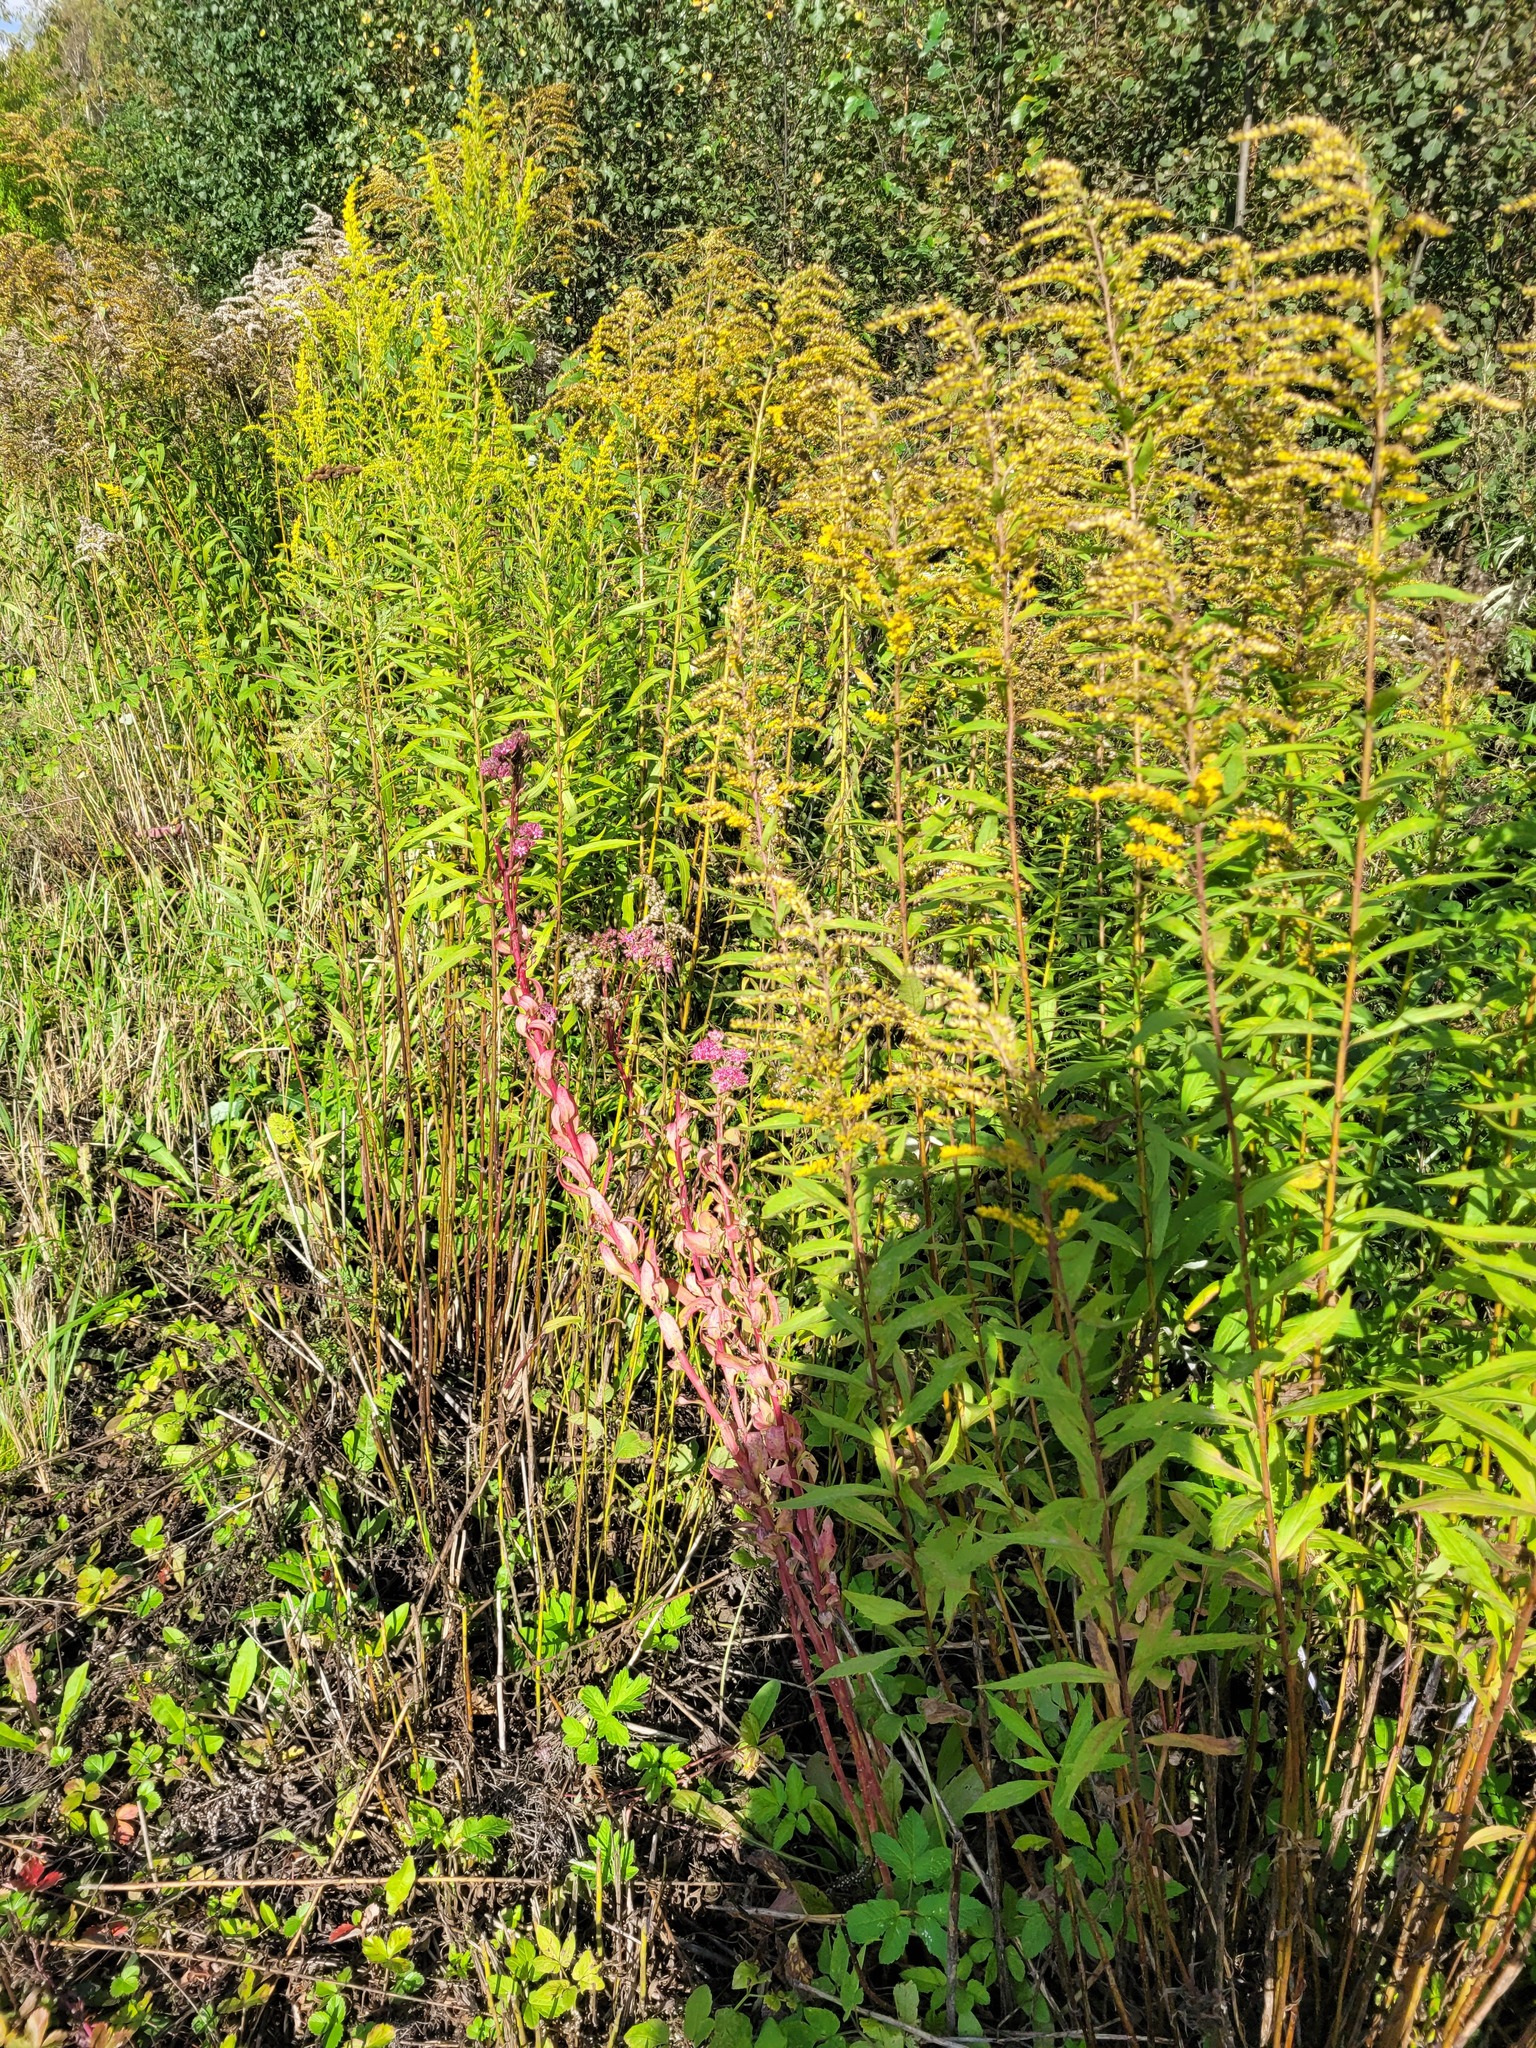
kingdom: Plantae
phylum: Tracheophyta
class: Magnoliopsida
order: Saxifragales
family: Crassulaceae
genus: Hylotelephium
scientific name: Hylotelephium telephium
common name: Live-forever
